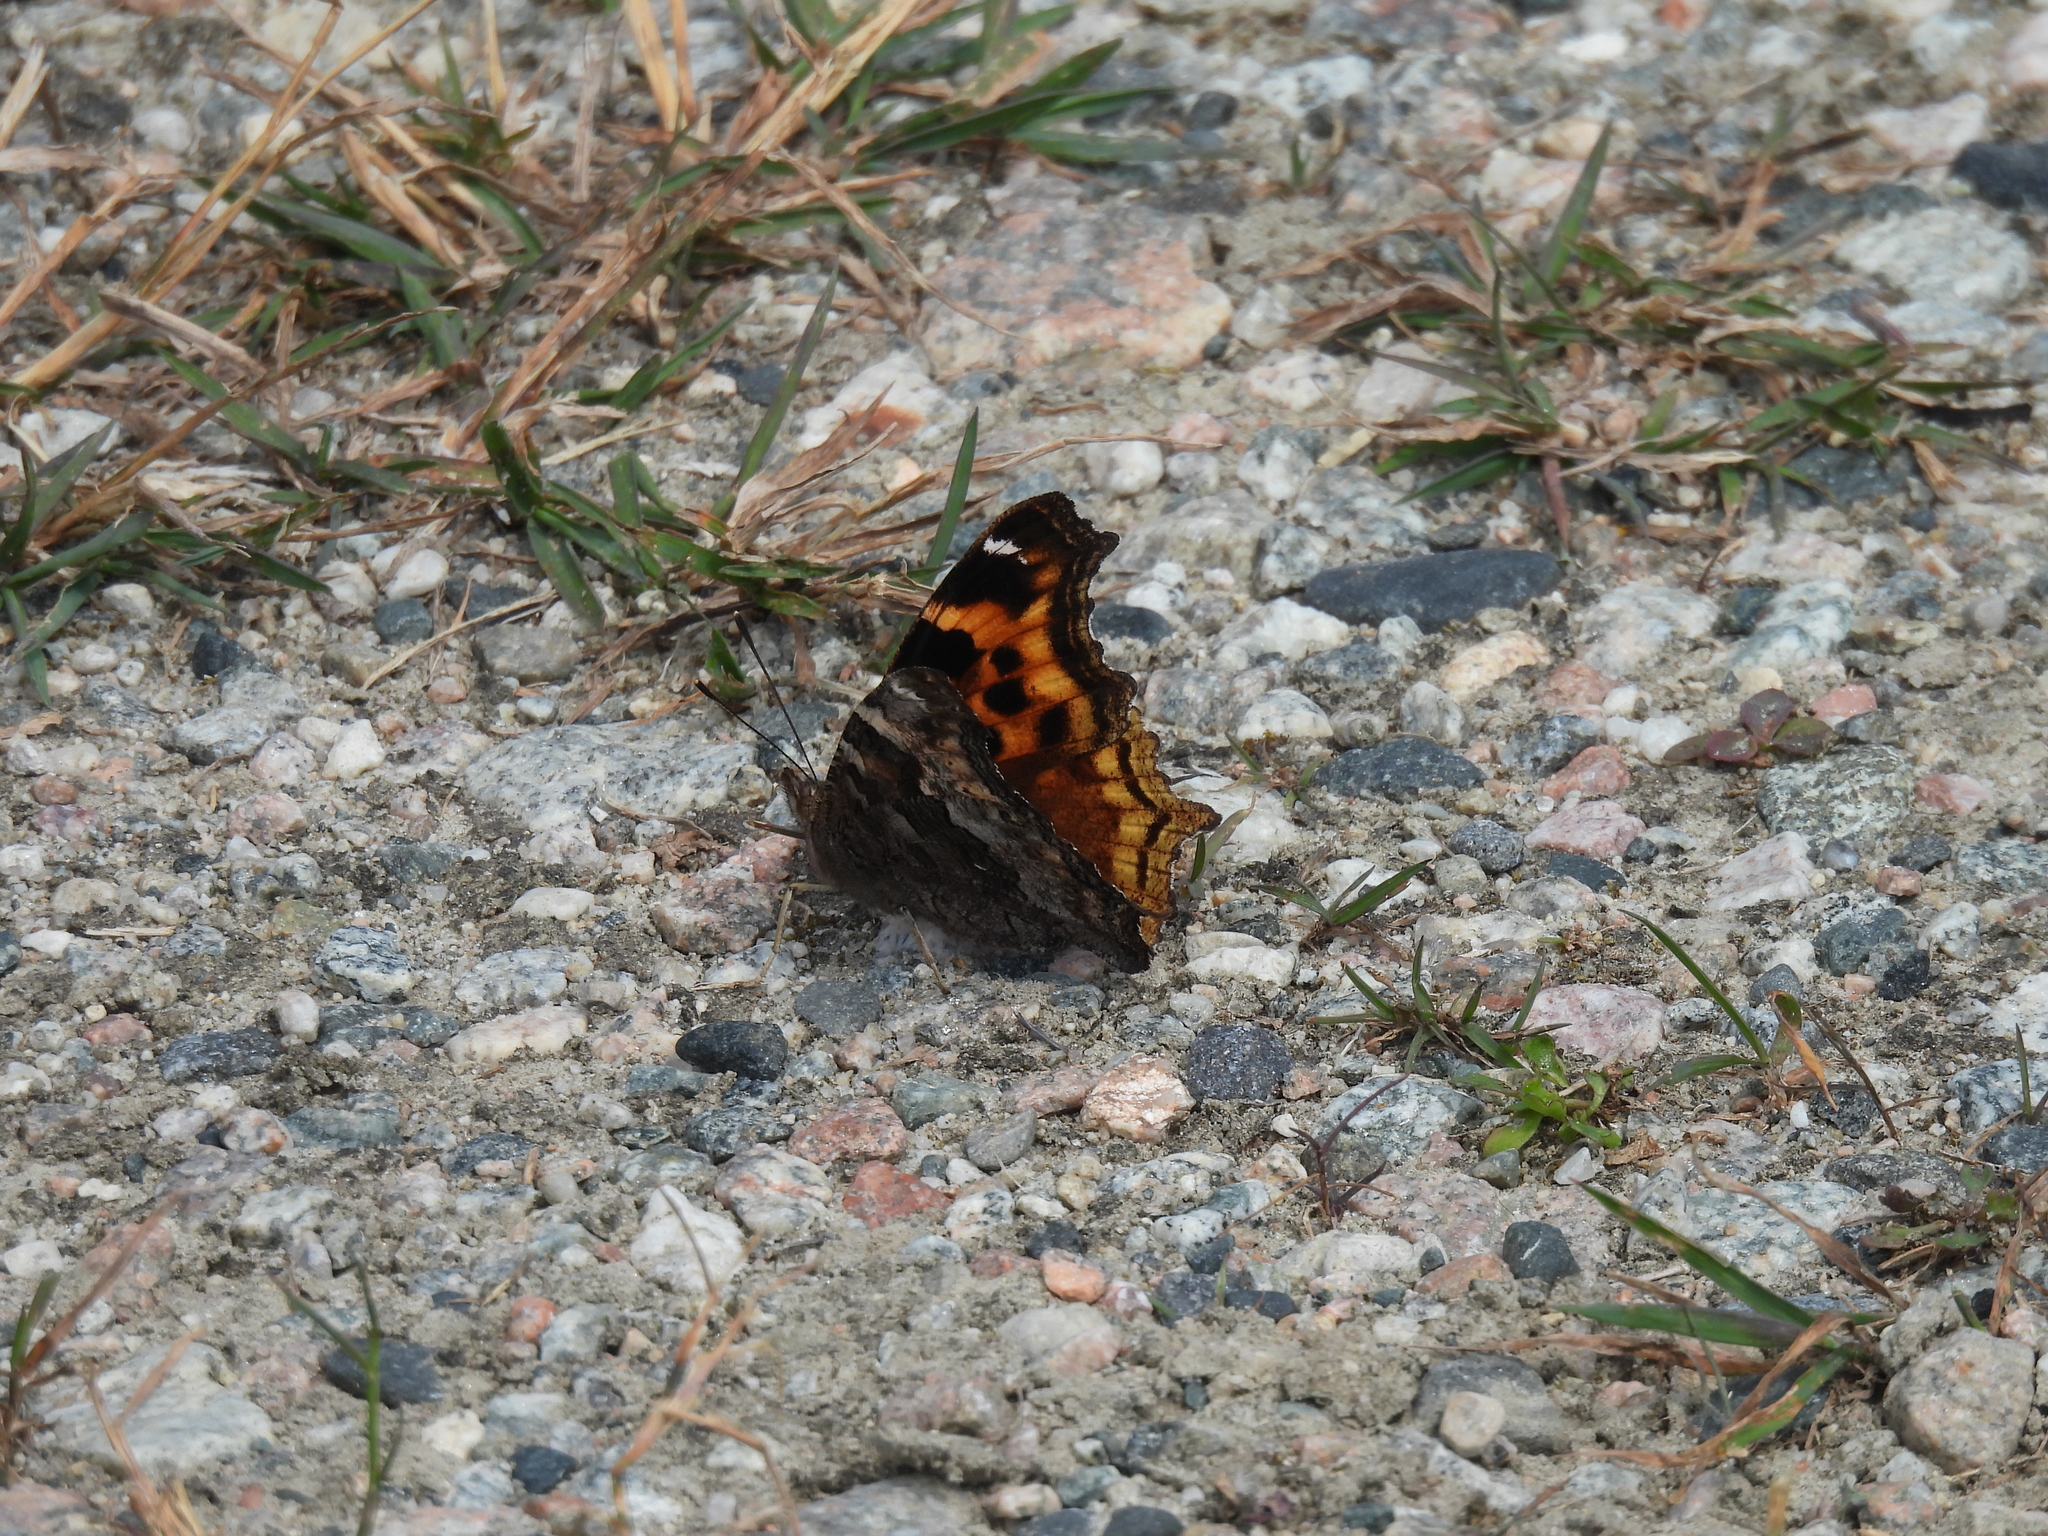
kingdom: Animalia
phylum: Arthropoda
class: Insecta
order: Lepidoptera
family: Nymphalidae
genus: Polygonia
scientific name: Polygonia vaualbum
